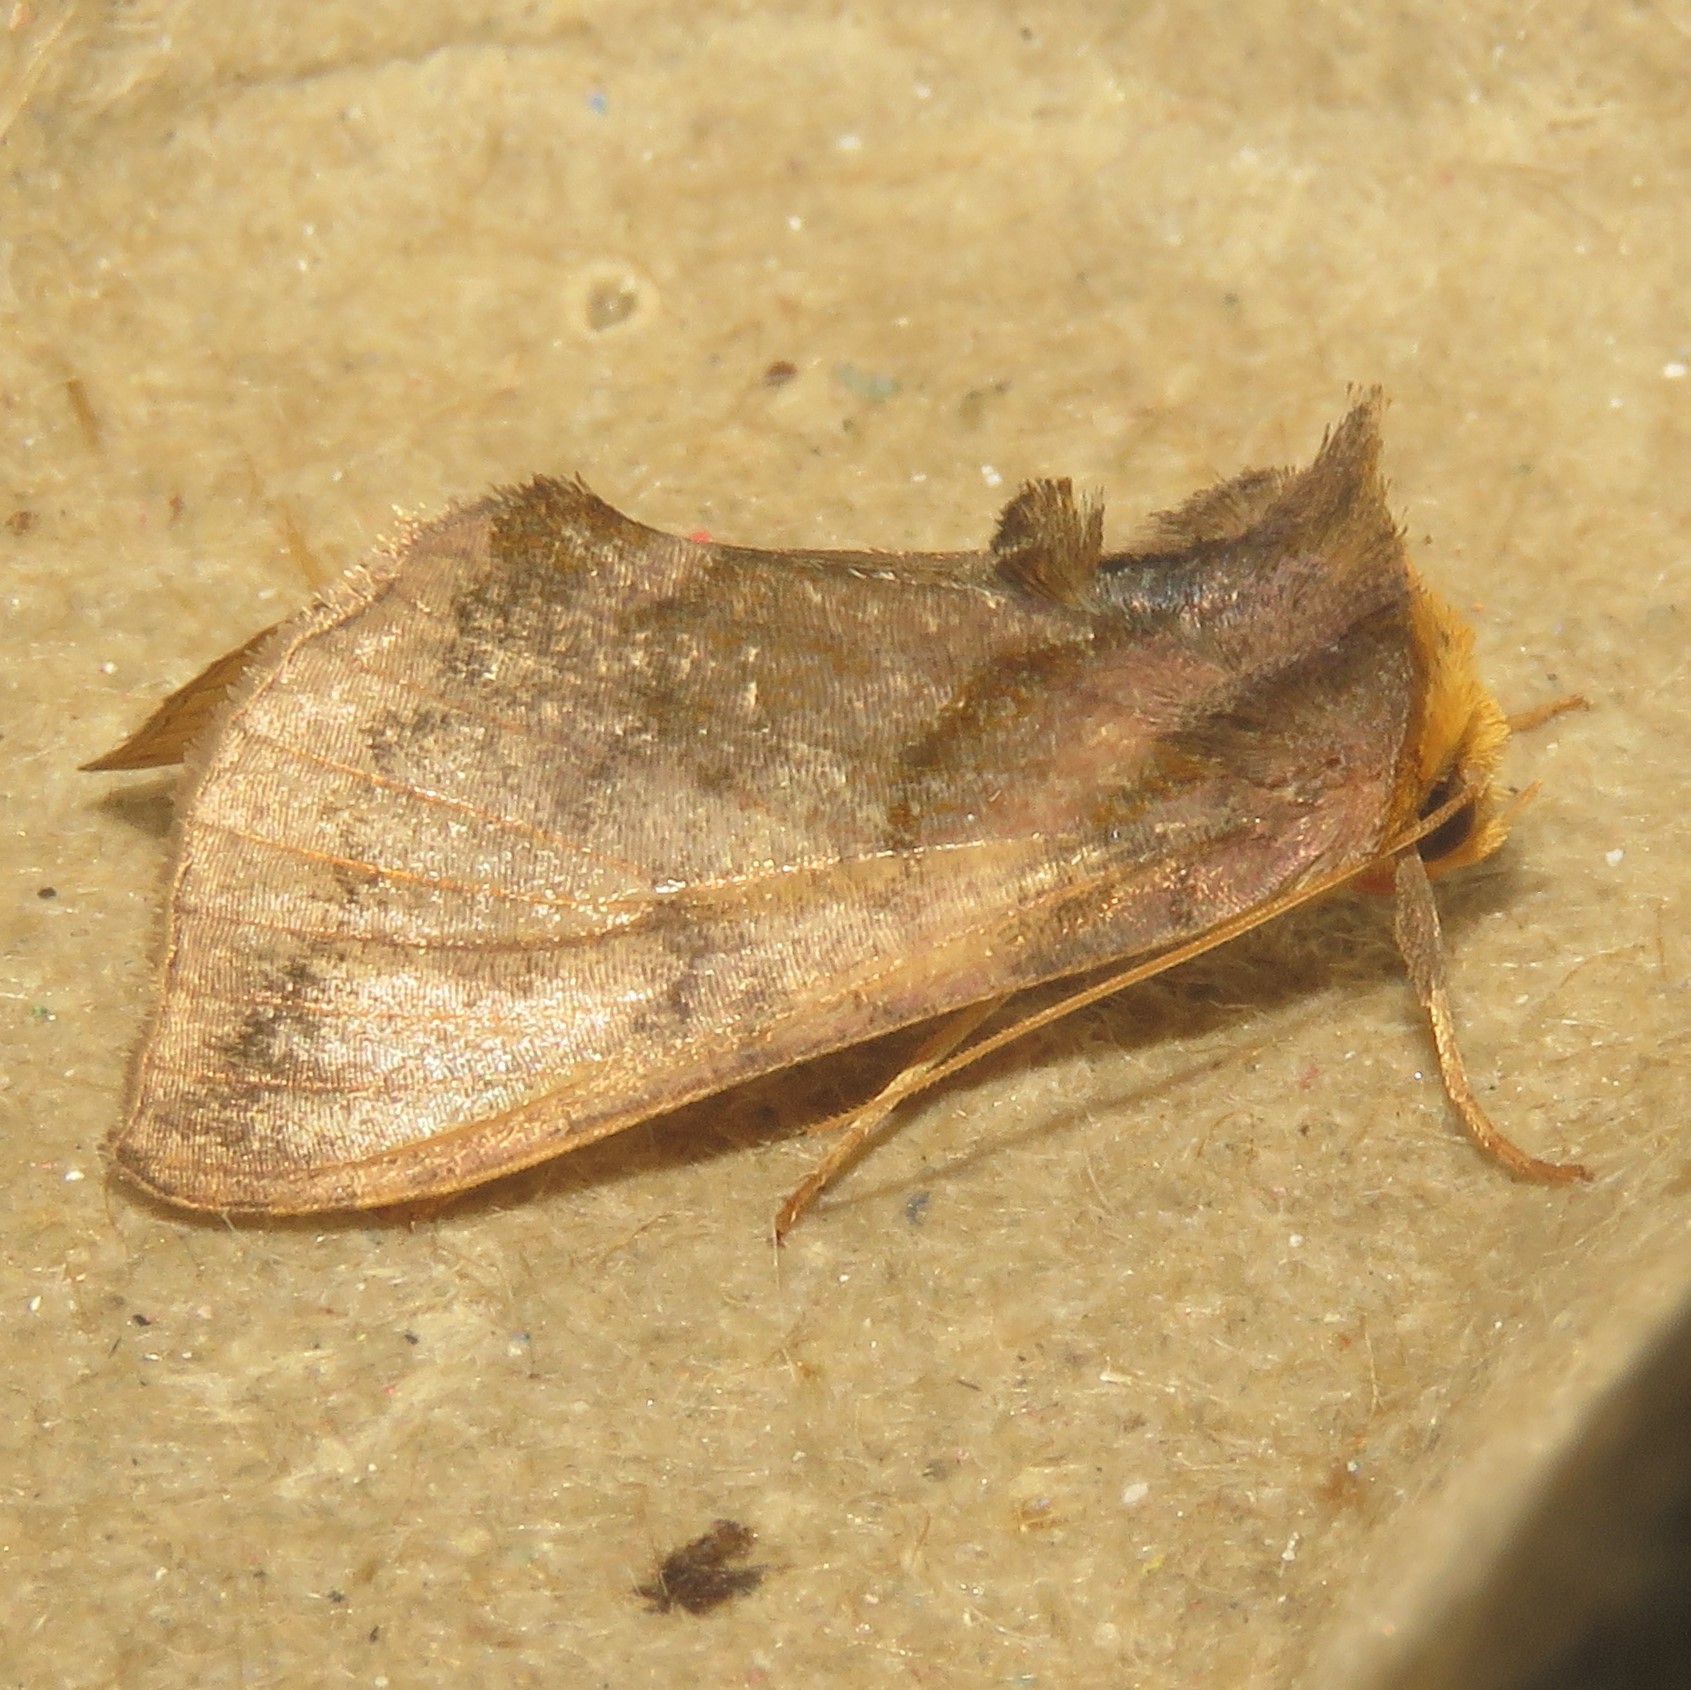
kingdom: Animalia
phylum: Arthropoda
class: Insecta
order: Lepidoptera
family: Noctuidae
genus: Allagrapha
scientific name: Allagrapha aerea
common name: Unspotted looper moth
